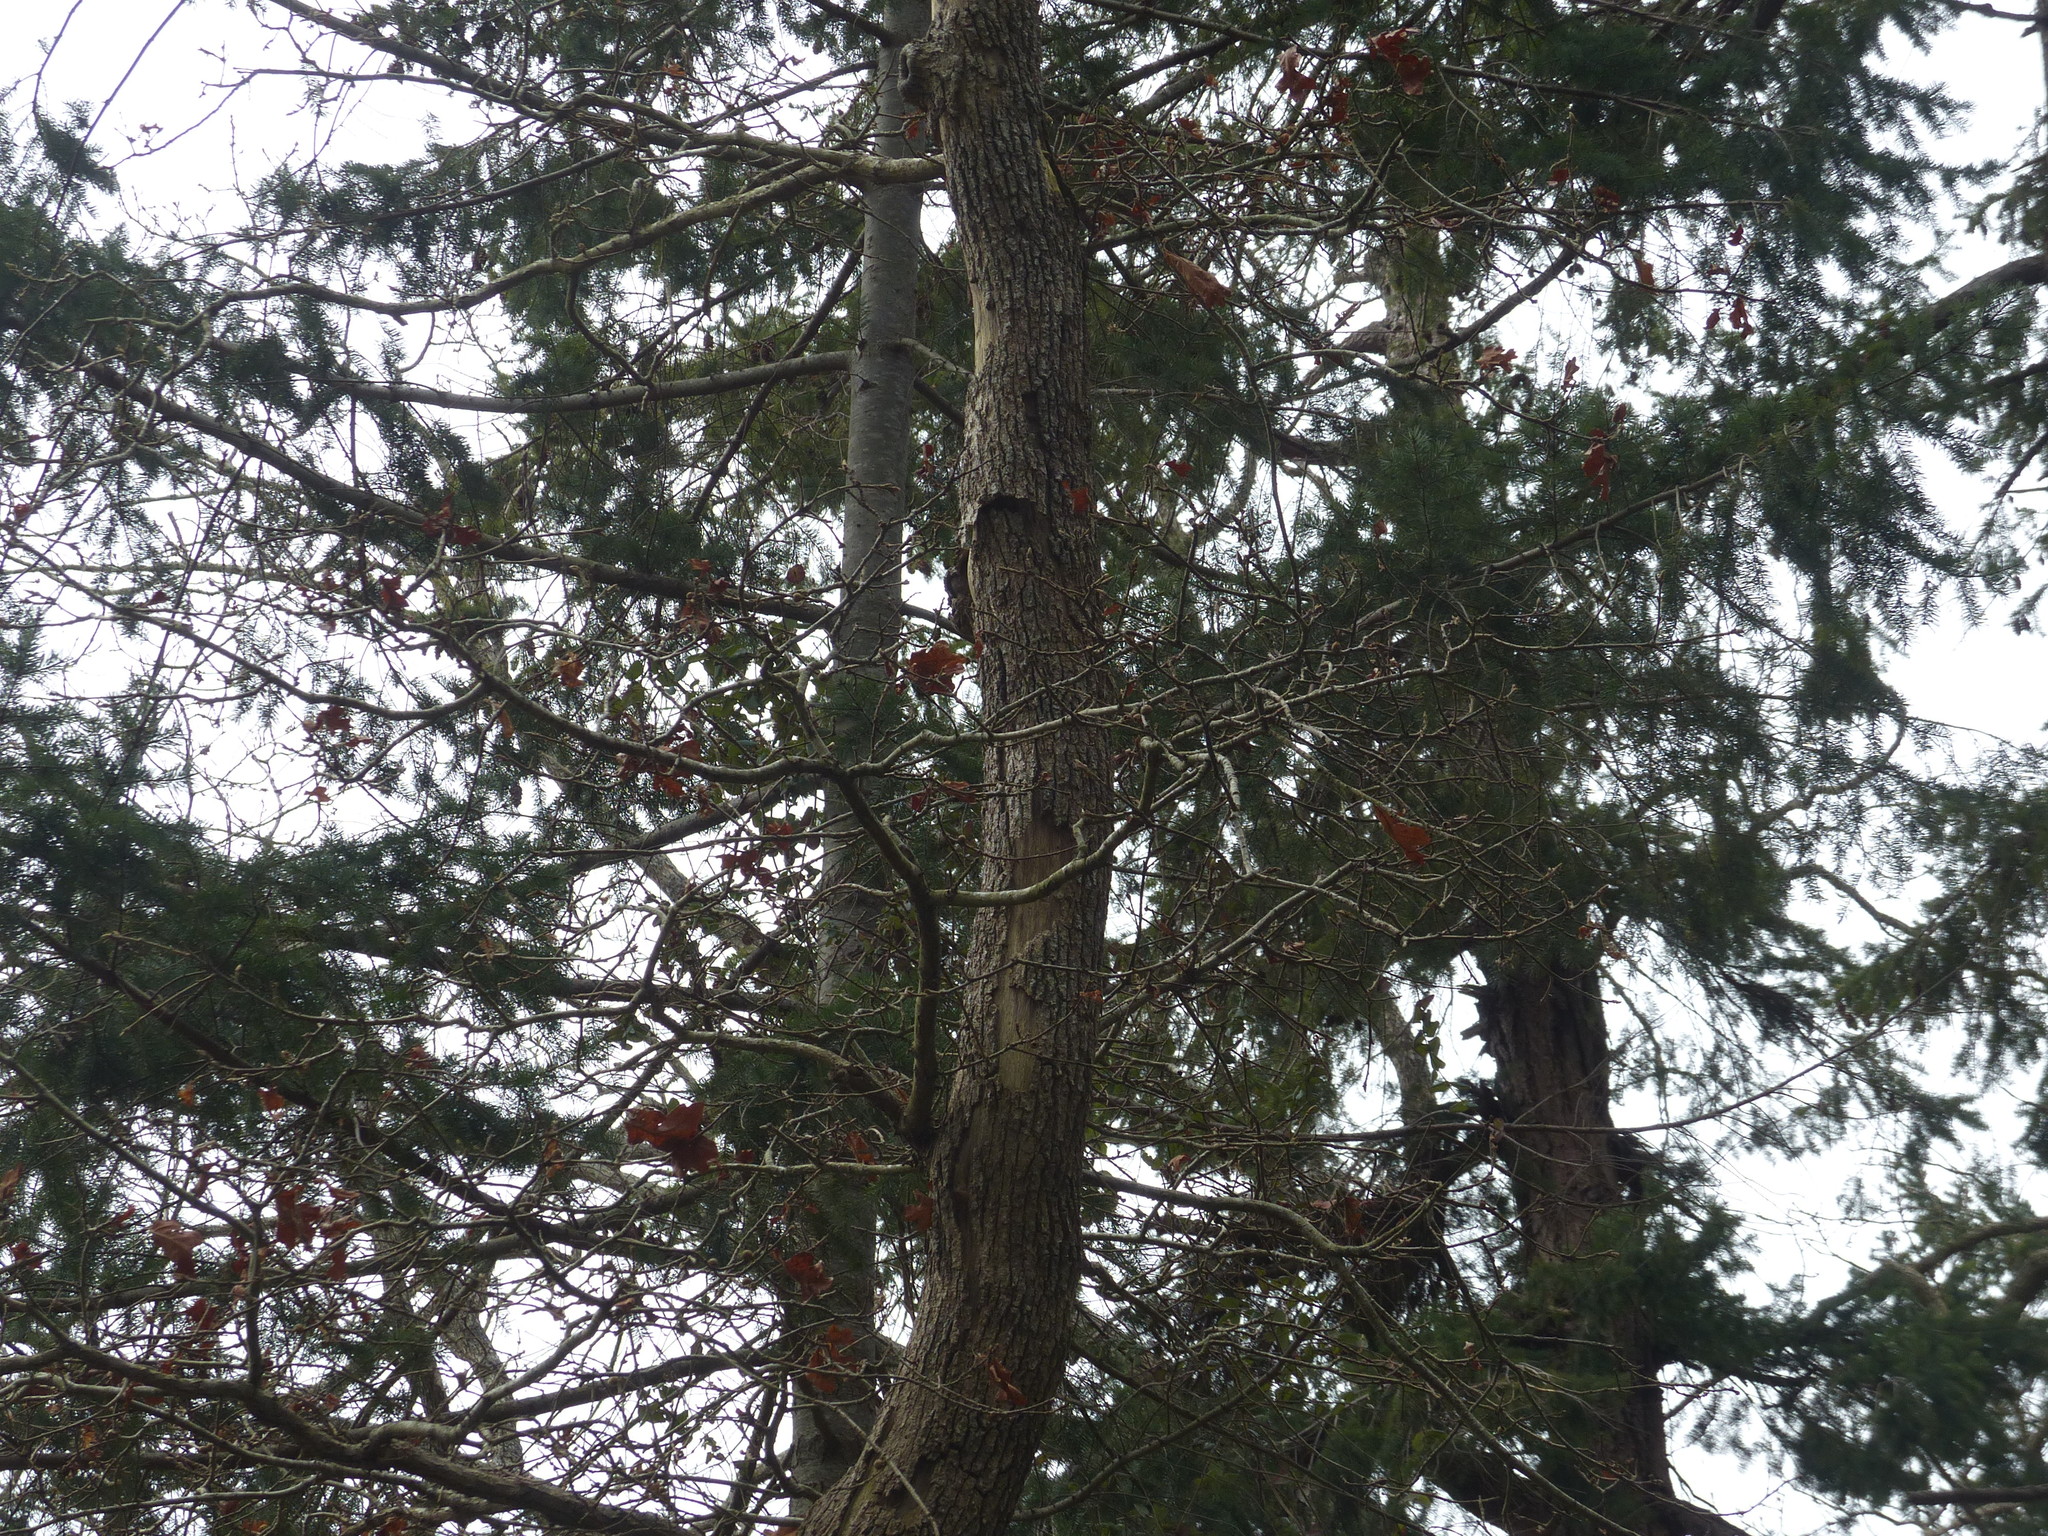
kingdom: Plantae
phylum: Tracheophyta
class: Magnoliopsida
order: Fagales
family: Fagaceae
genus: Quercus
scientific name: Quercus garryana
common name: Garry oak
